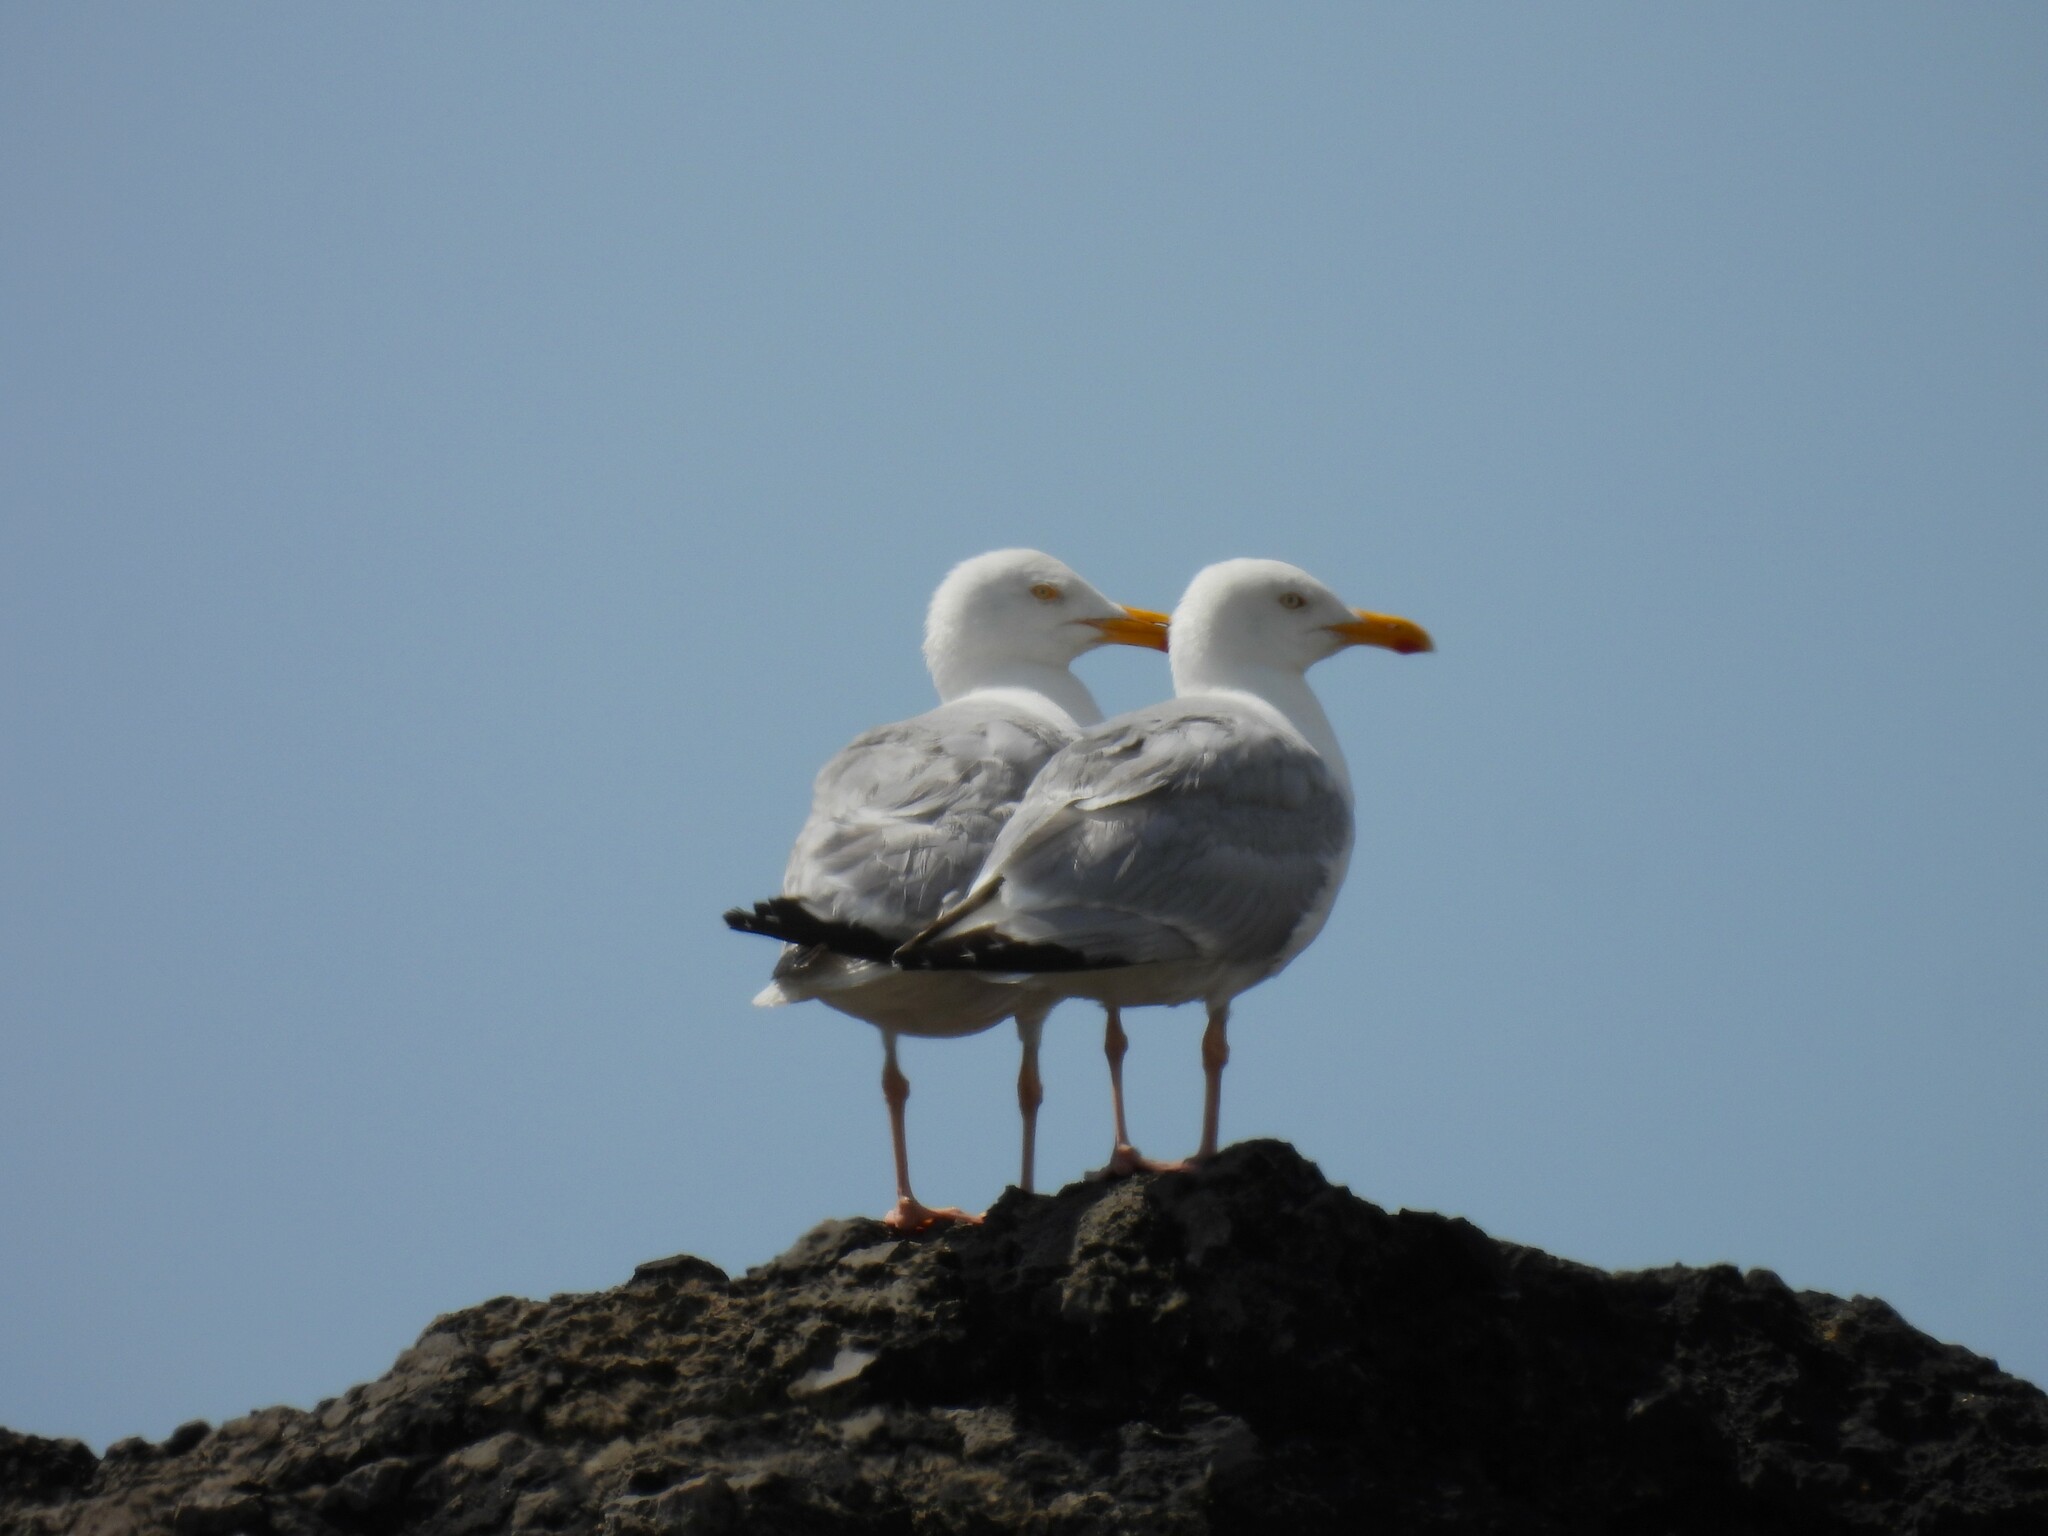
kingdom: Animalia
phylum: Chordata
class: Aves
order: Charadriiformes
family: Laridae
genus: Larus
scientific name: Larus argentatus
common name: Herring gull
